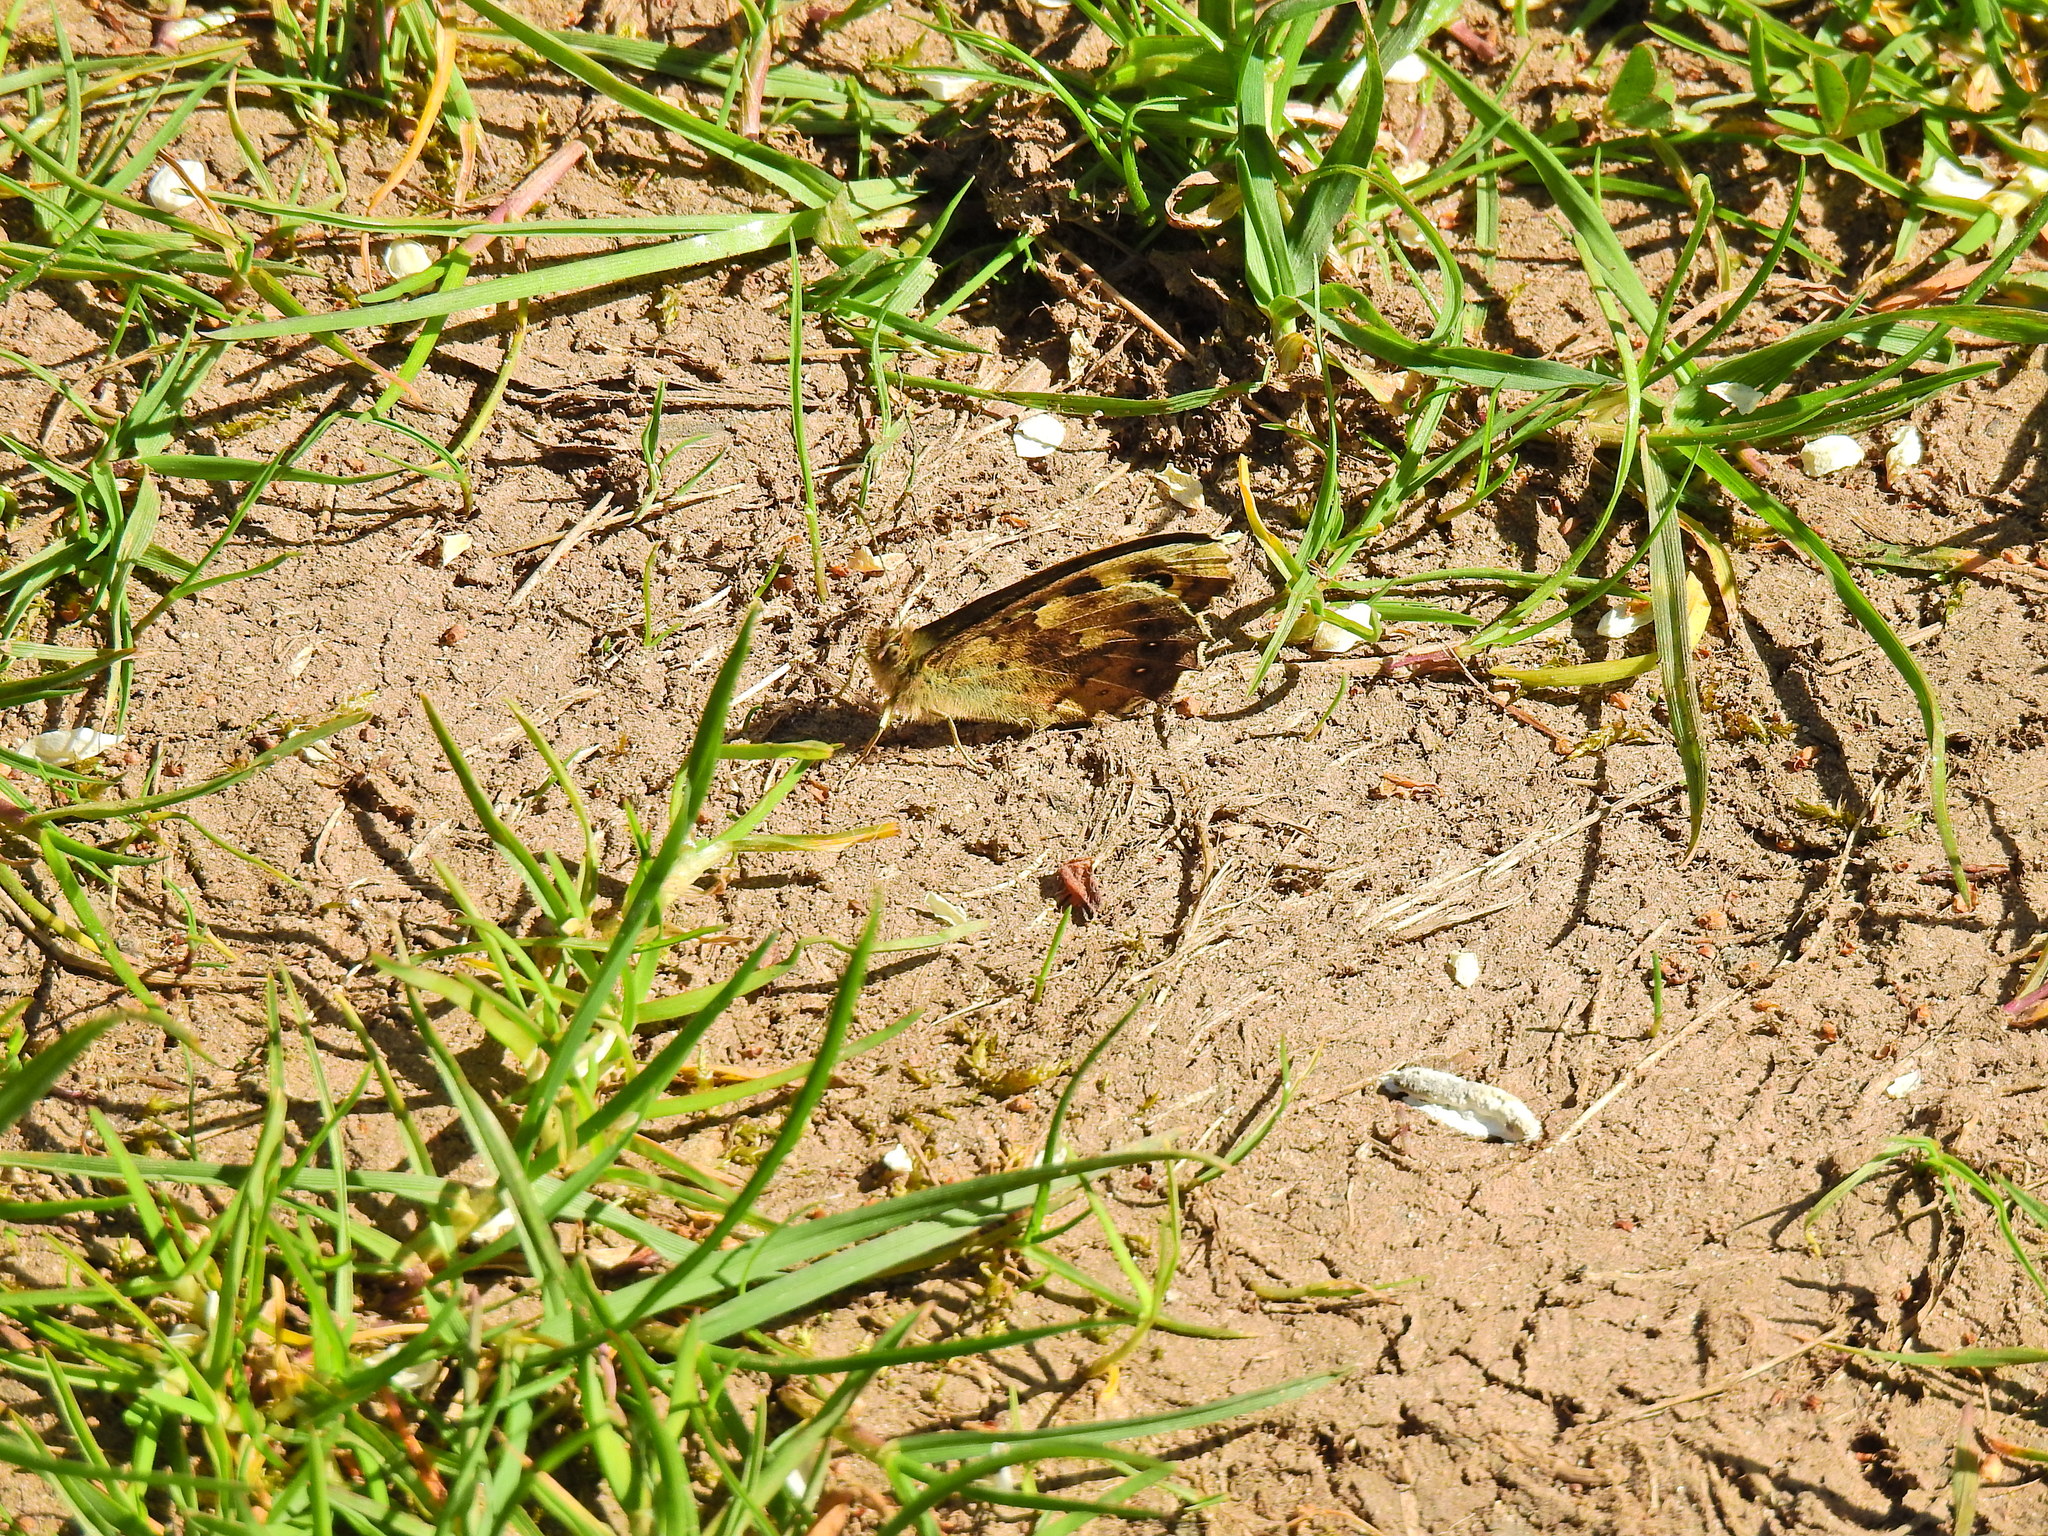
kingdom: Animalia
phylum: Arthropoda
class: Insecta
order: Lepidoptera
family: Nymphalidae
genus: Pararge
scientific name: Pararge aegeria
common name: Speckled wood
